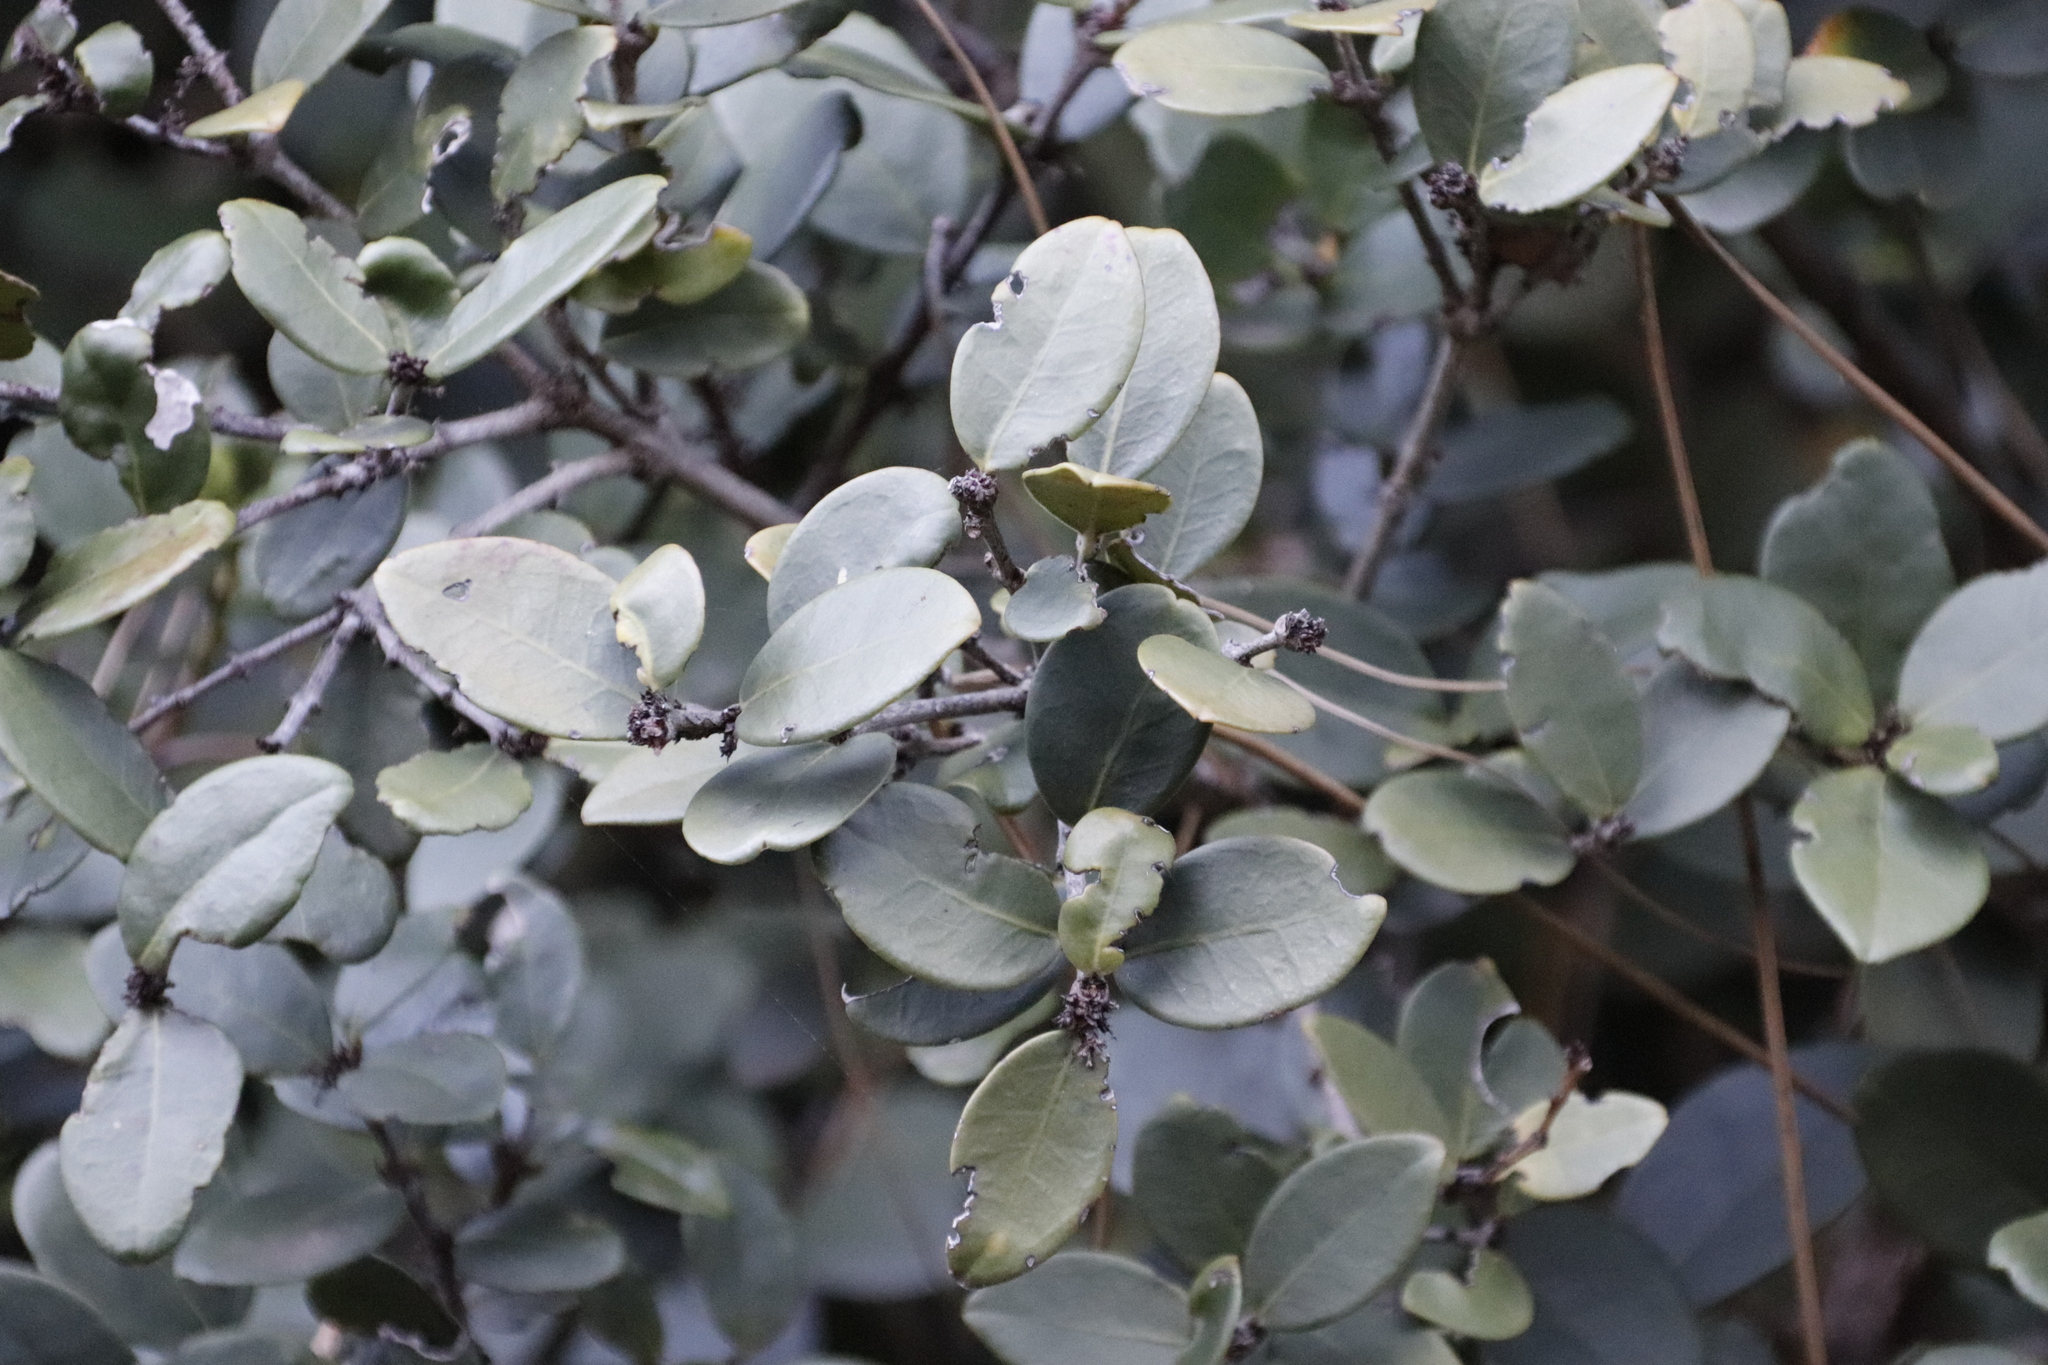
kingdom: Plantae
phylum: Tracheophyta
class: Magnoliopsida
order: Celastrales
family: Celastraceae
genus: Maurocenia
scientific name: Maurocenia frangula
